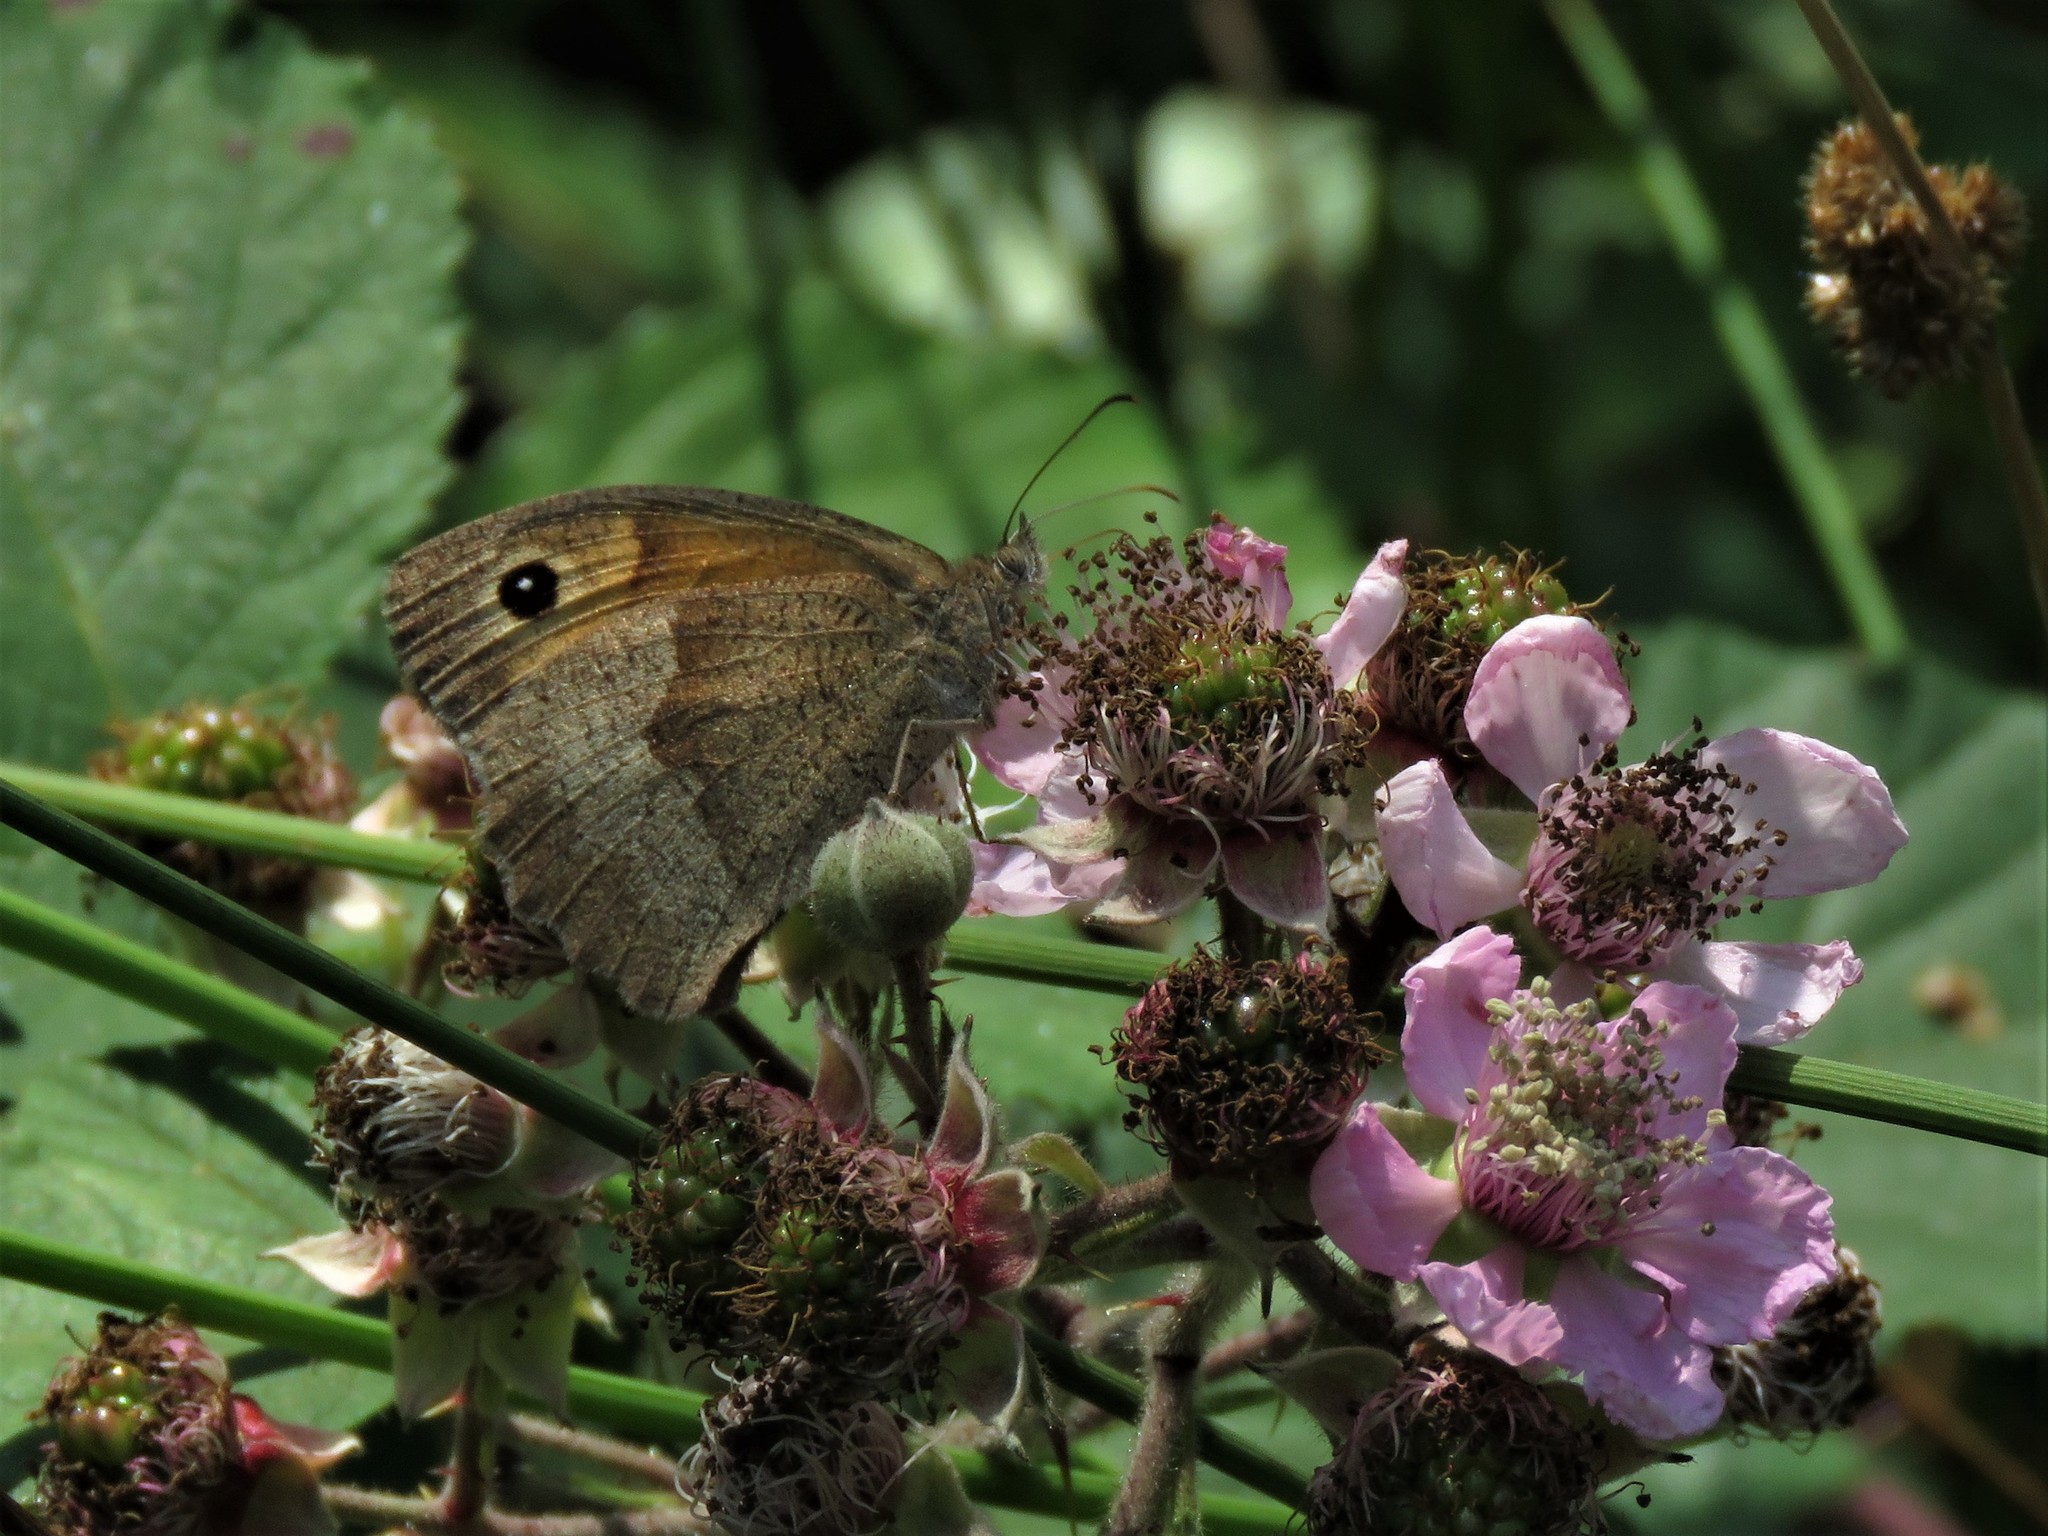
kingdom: Animalia
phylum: Arthropoda
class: Insecta
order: Lepidoptera
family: Nymphalidae
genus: Maniola
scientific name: Maniola jurtina
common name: Meadow brown
